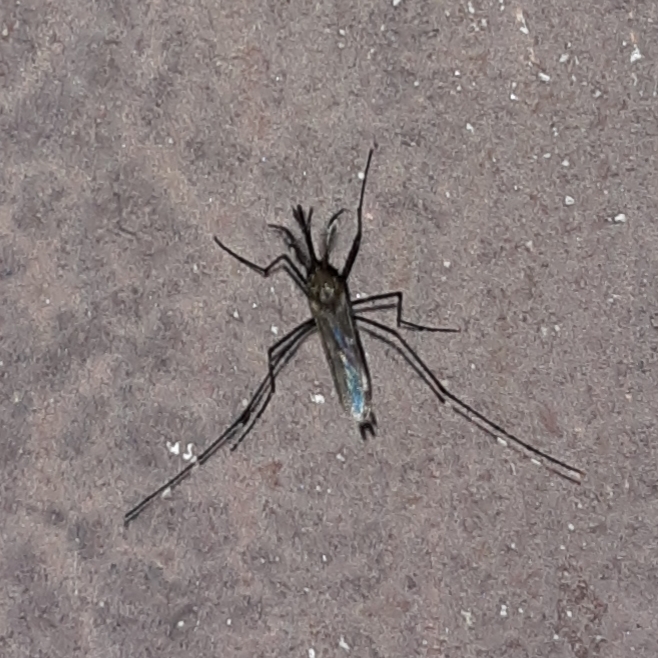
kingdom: Animalia
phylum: Arthropoda
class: Insecta
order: Diptera
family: Culicidae
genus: Aedes
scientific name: Aedes japonicus
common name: Asian bush mosquito
